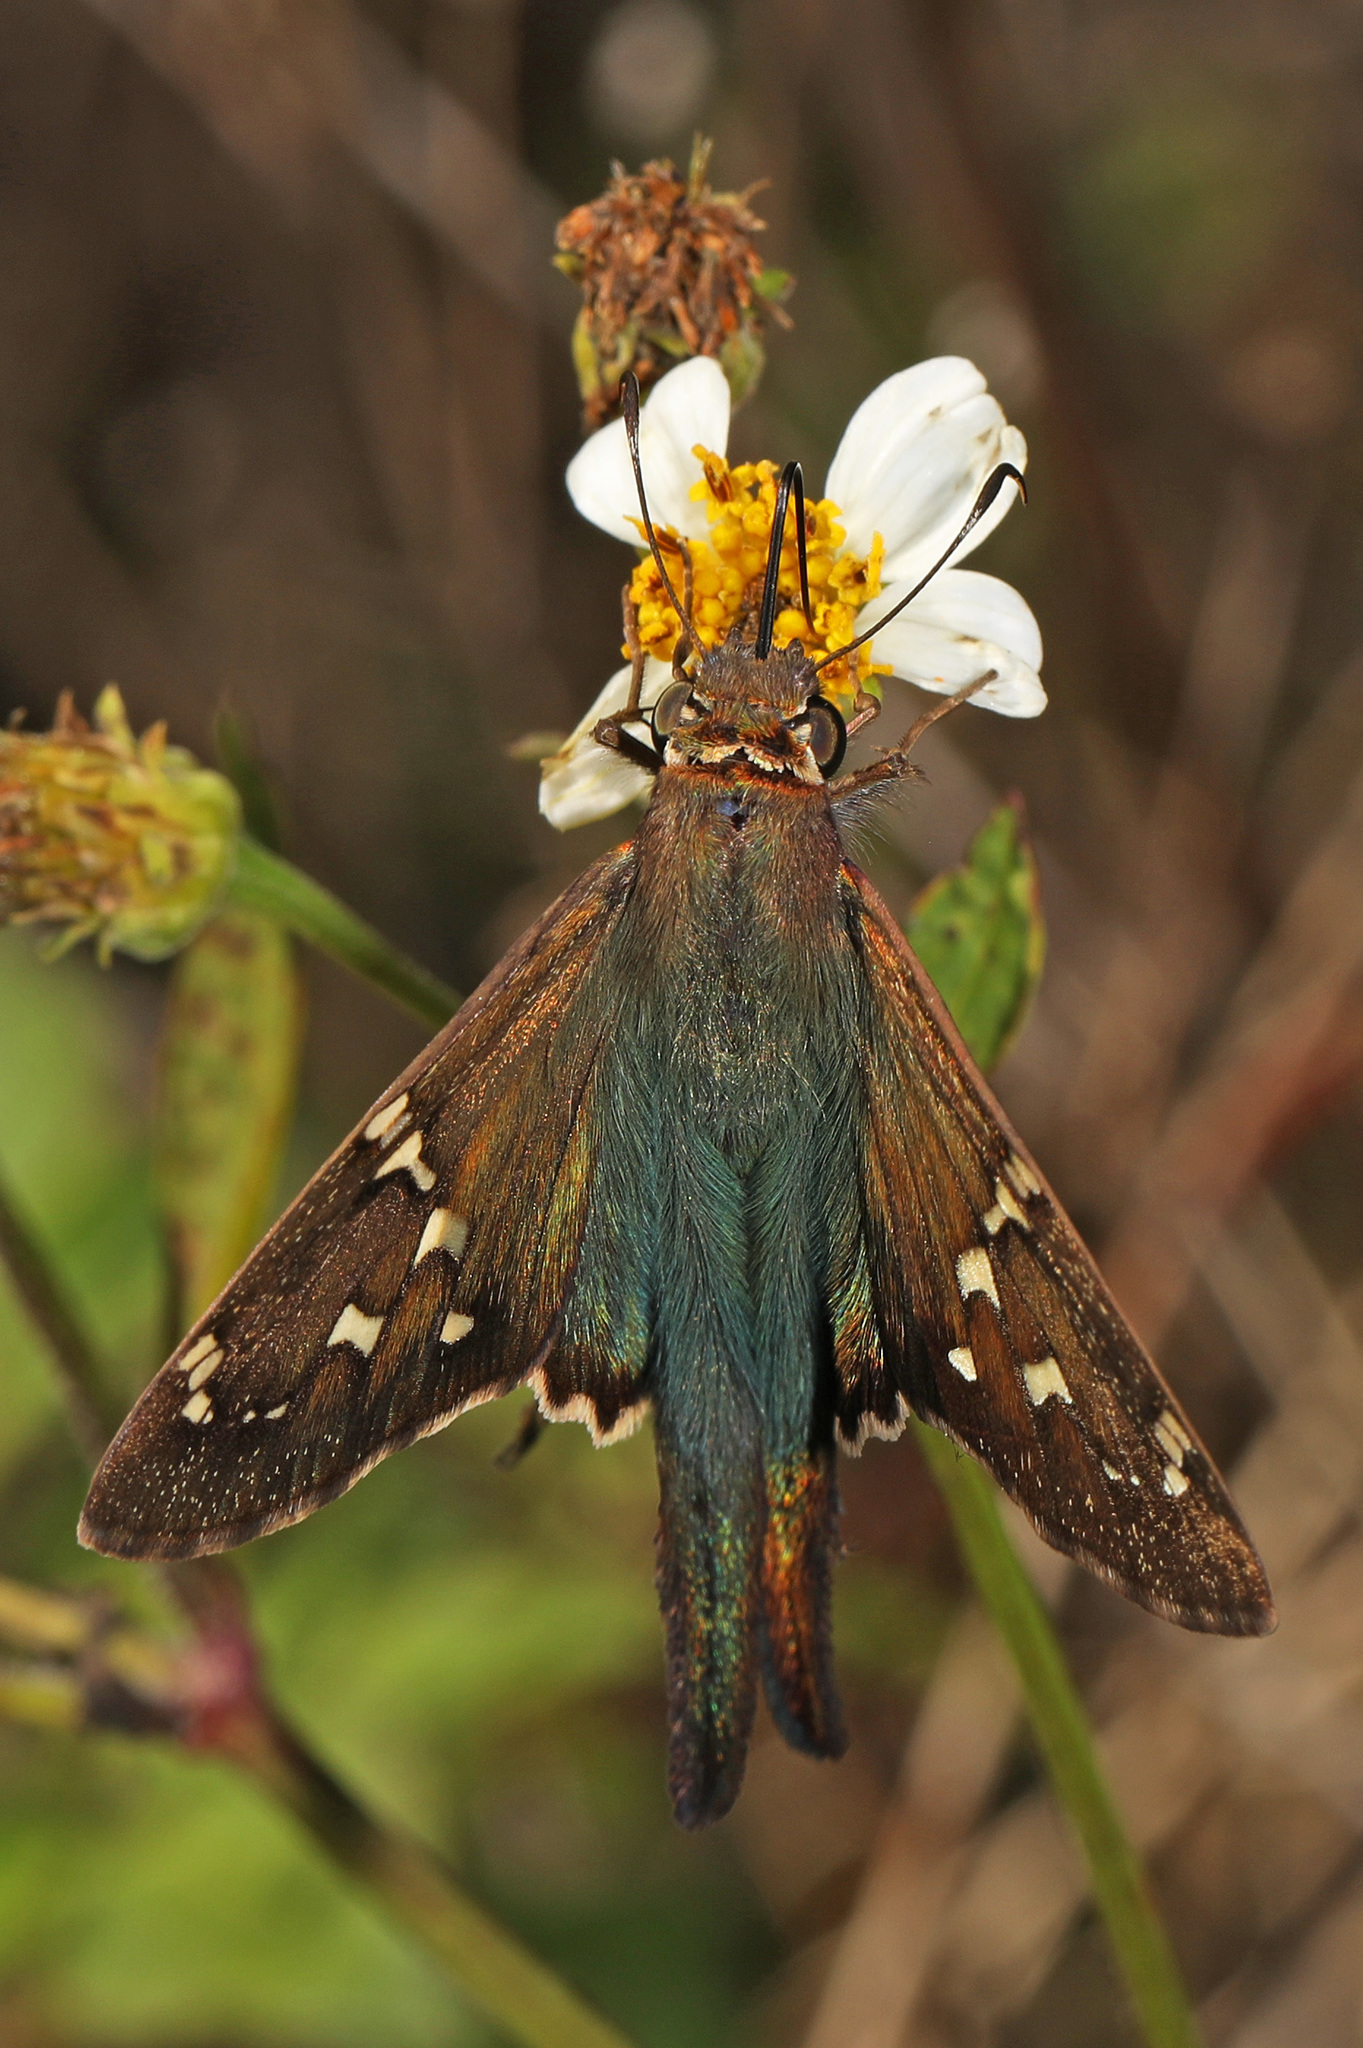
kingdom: Animalia
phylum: Arthropoda
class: Insecta
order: Lepidoptera
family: Hesperiidae
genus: Urbanus
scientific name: Urbanus proteus
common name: Long-tailed skipper
